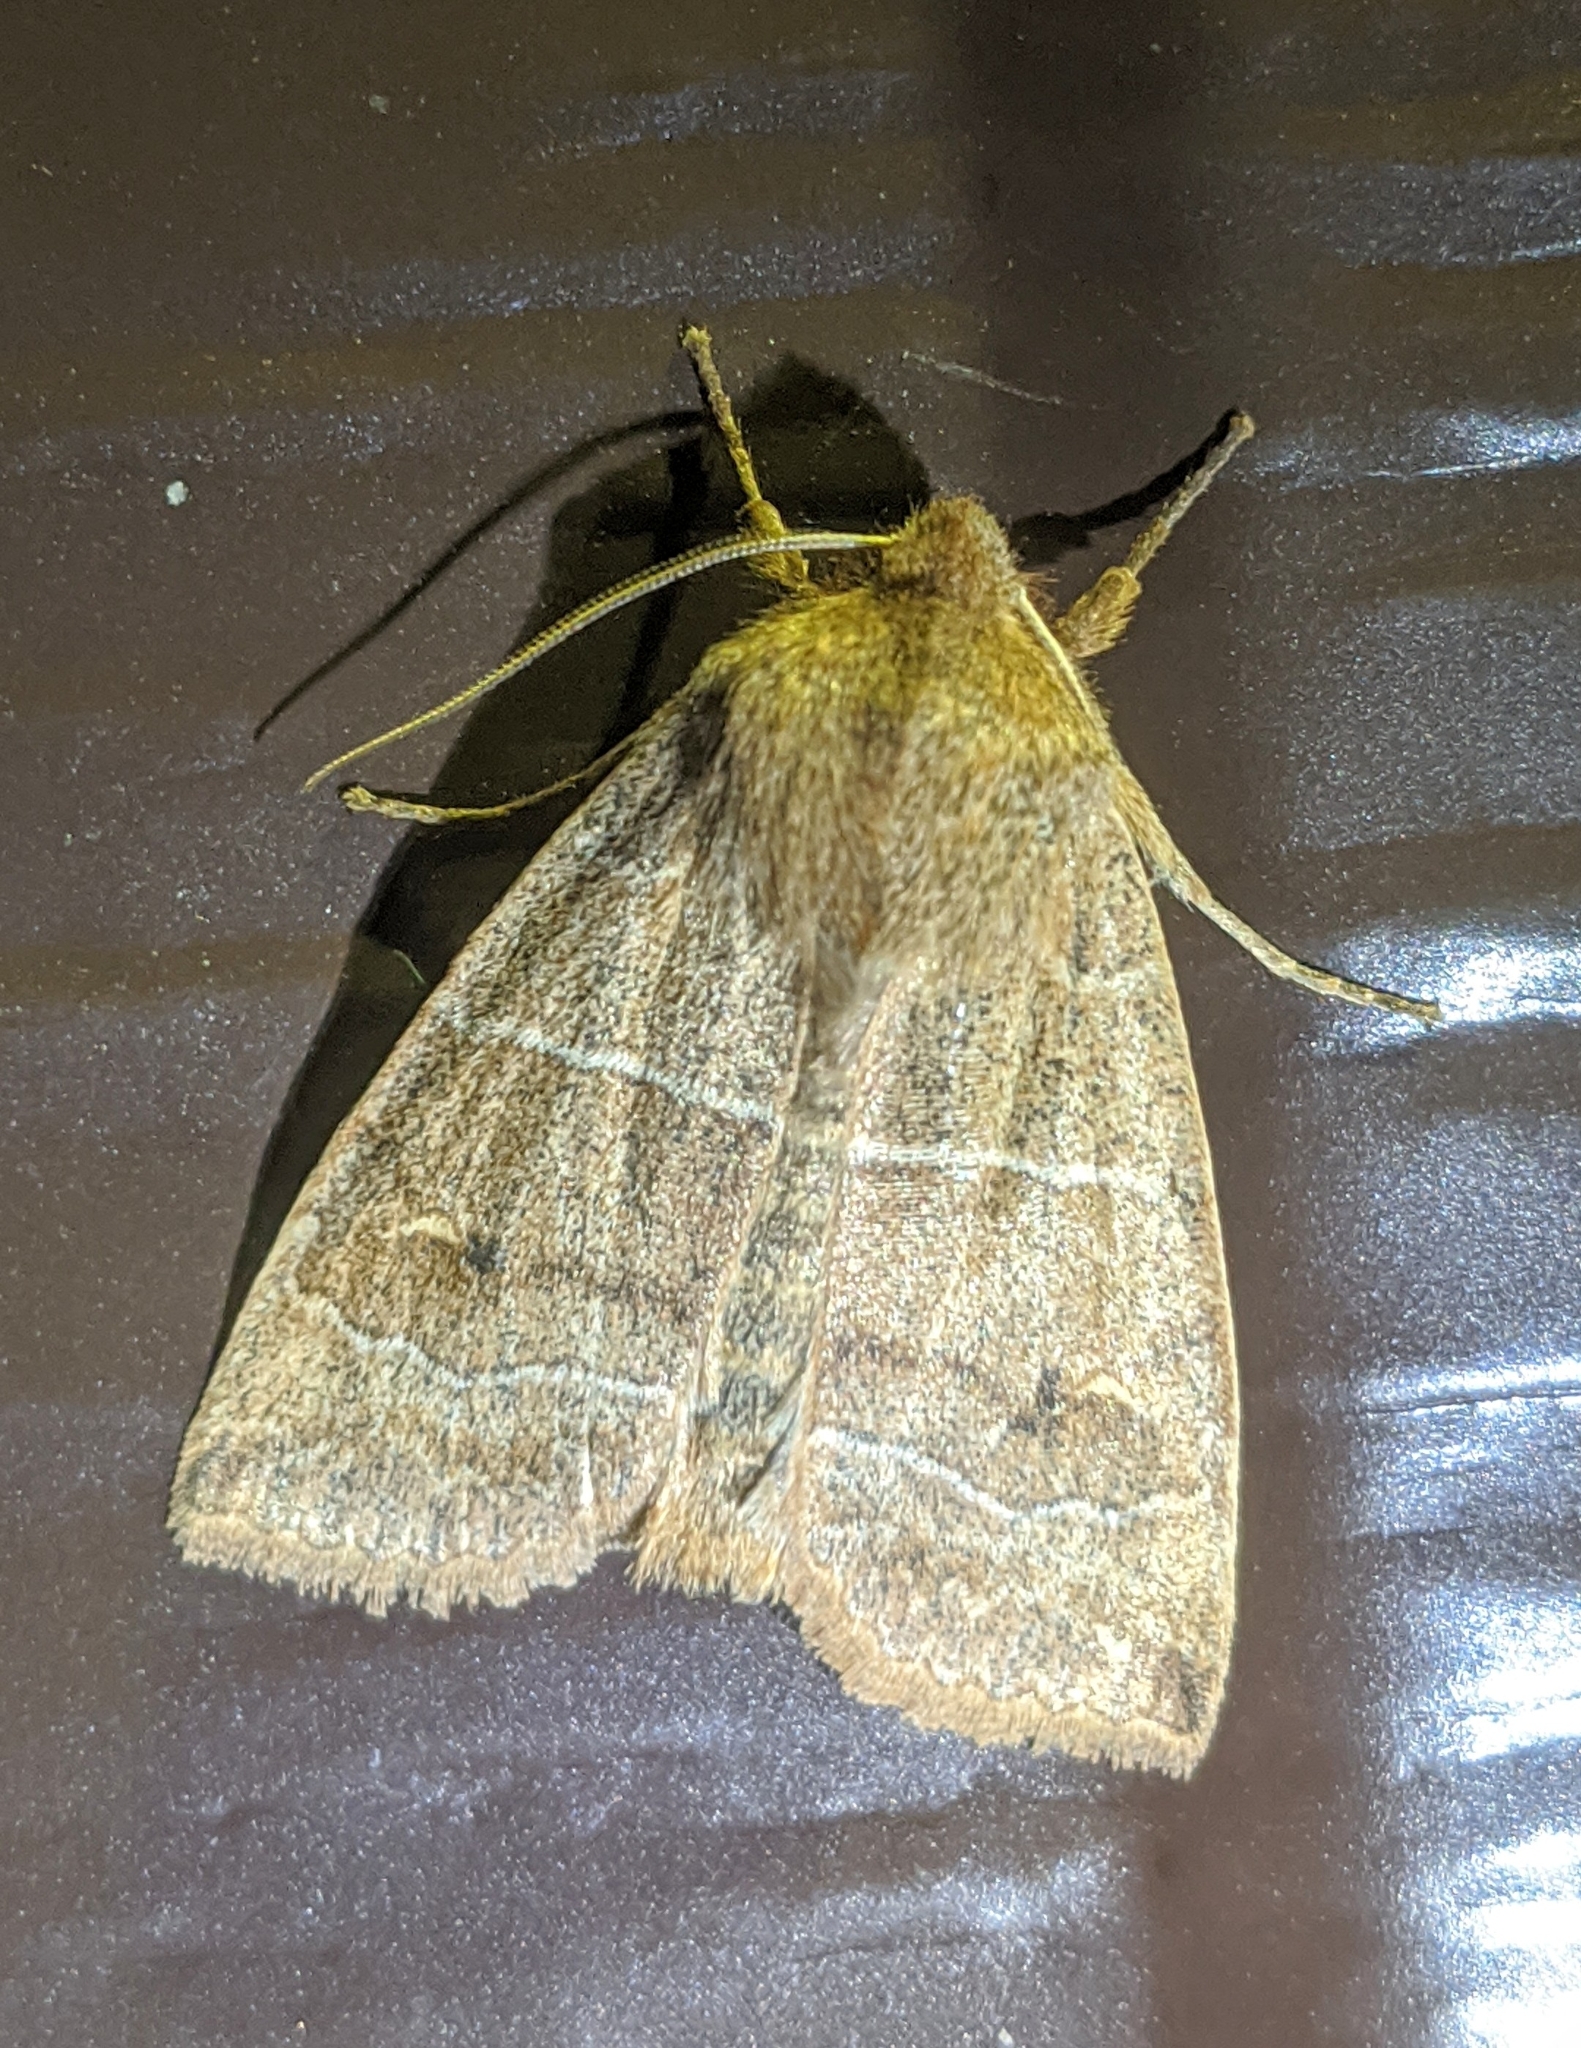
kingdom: Animalia
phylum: Arthropoda
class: Insecta
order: Lepidoptera
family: Noctuidae
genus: Eupsilia
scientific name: Eupsilia morrisoni
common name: Morrison's sallow
